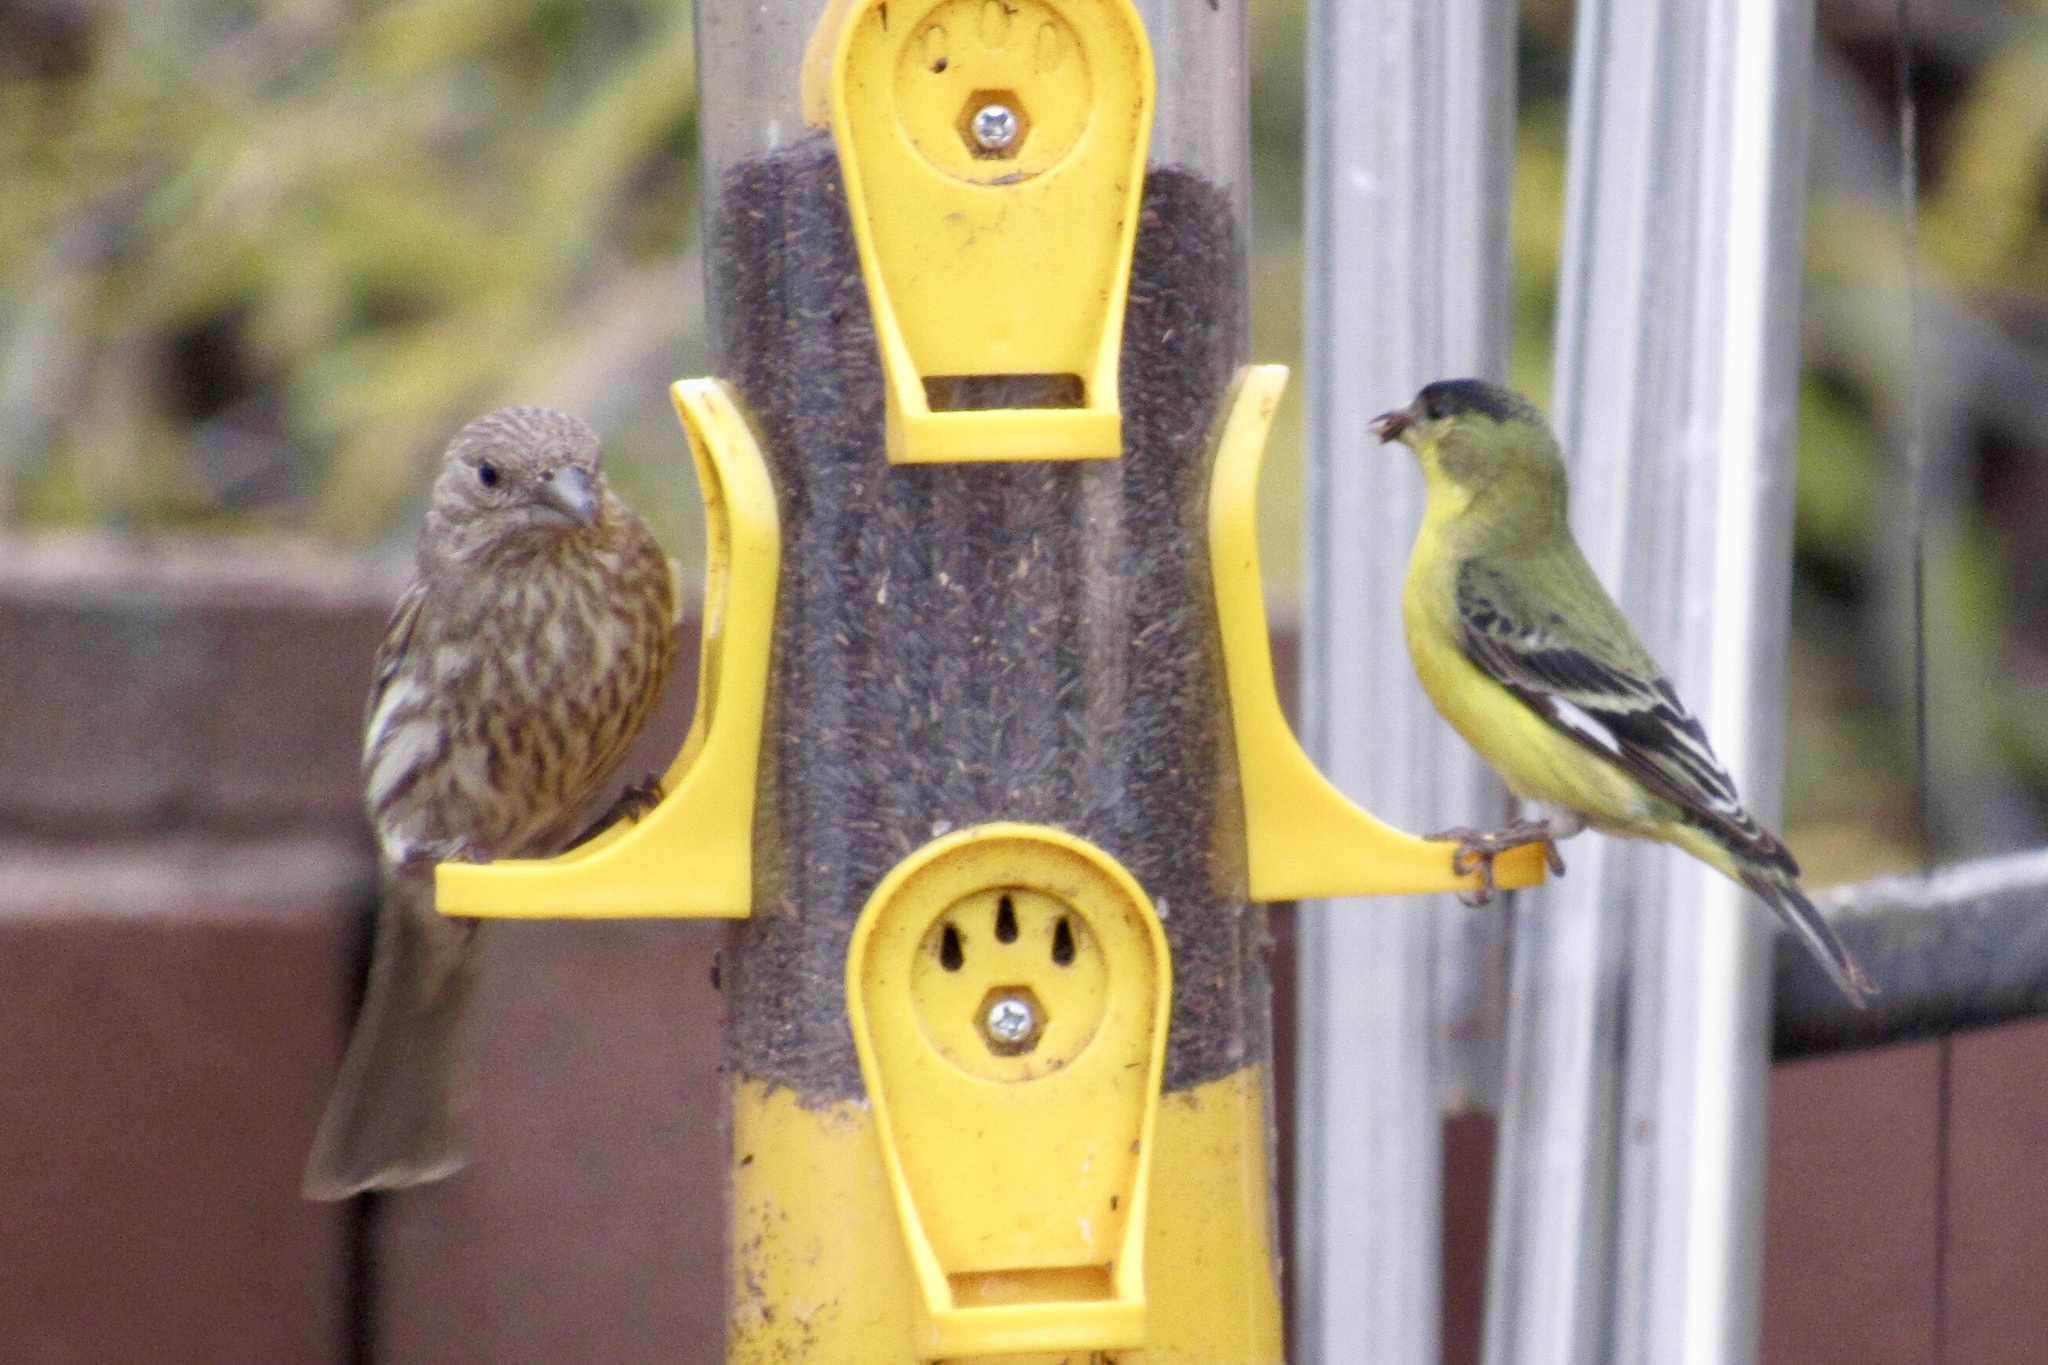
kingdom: Animalia
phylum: Chordata
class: Aves
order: Passeriformes
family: Fringillidae
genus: Spinus
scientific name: Spinus psaltria
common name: Lesser goldfinch
